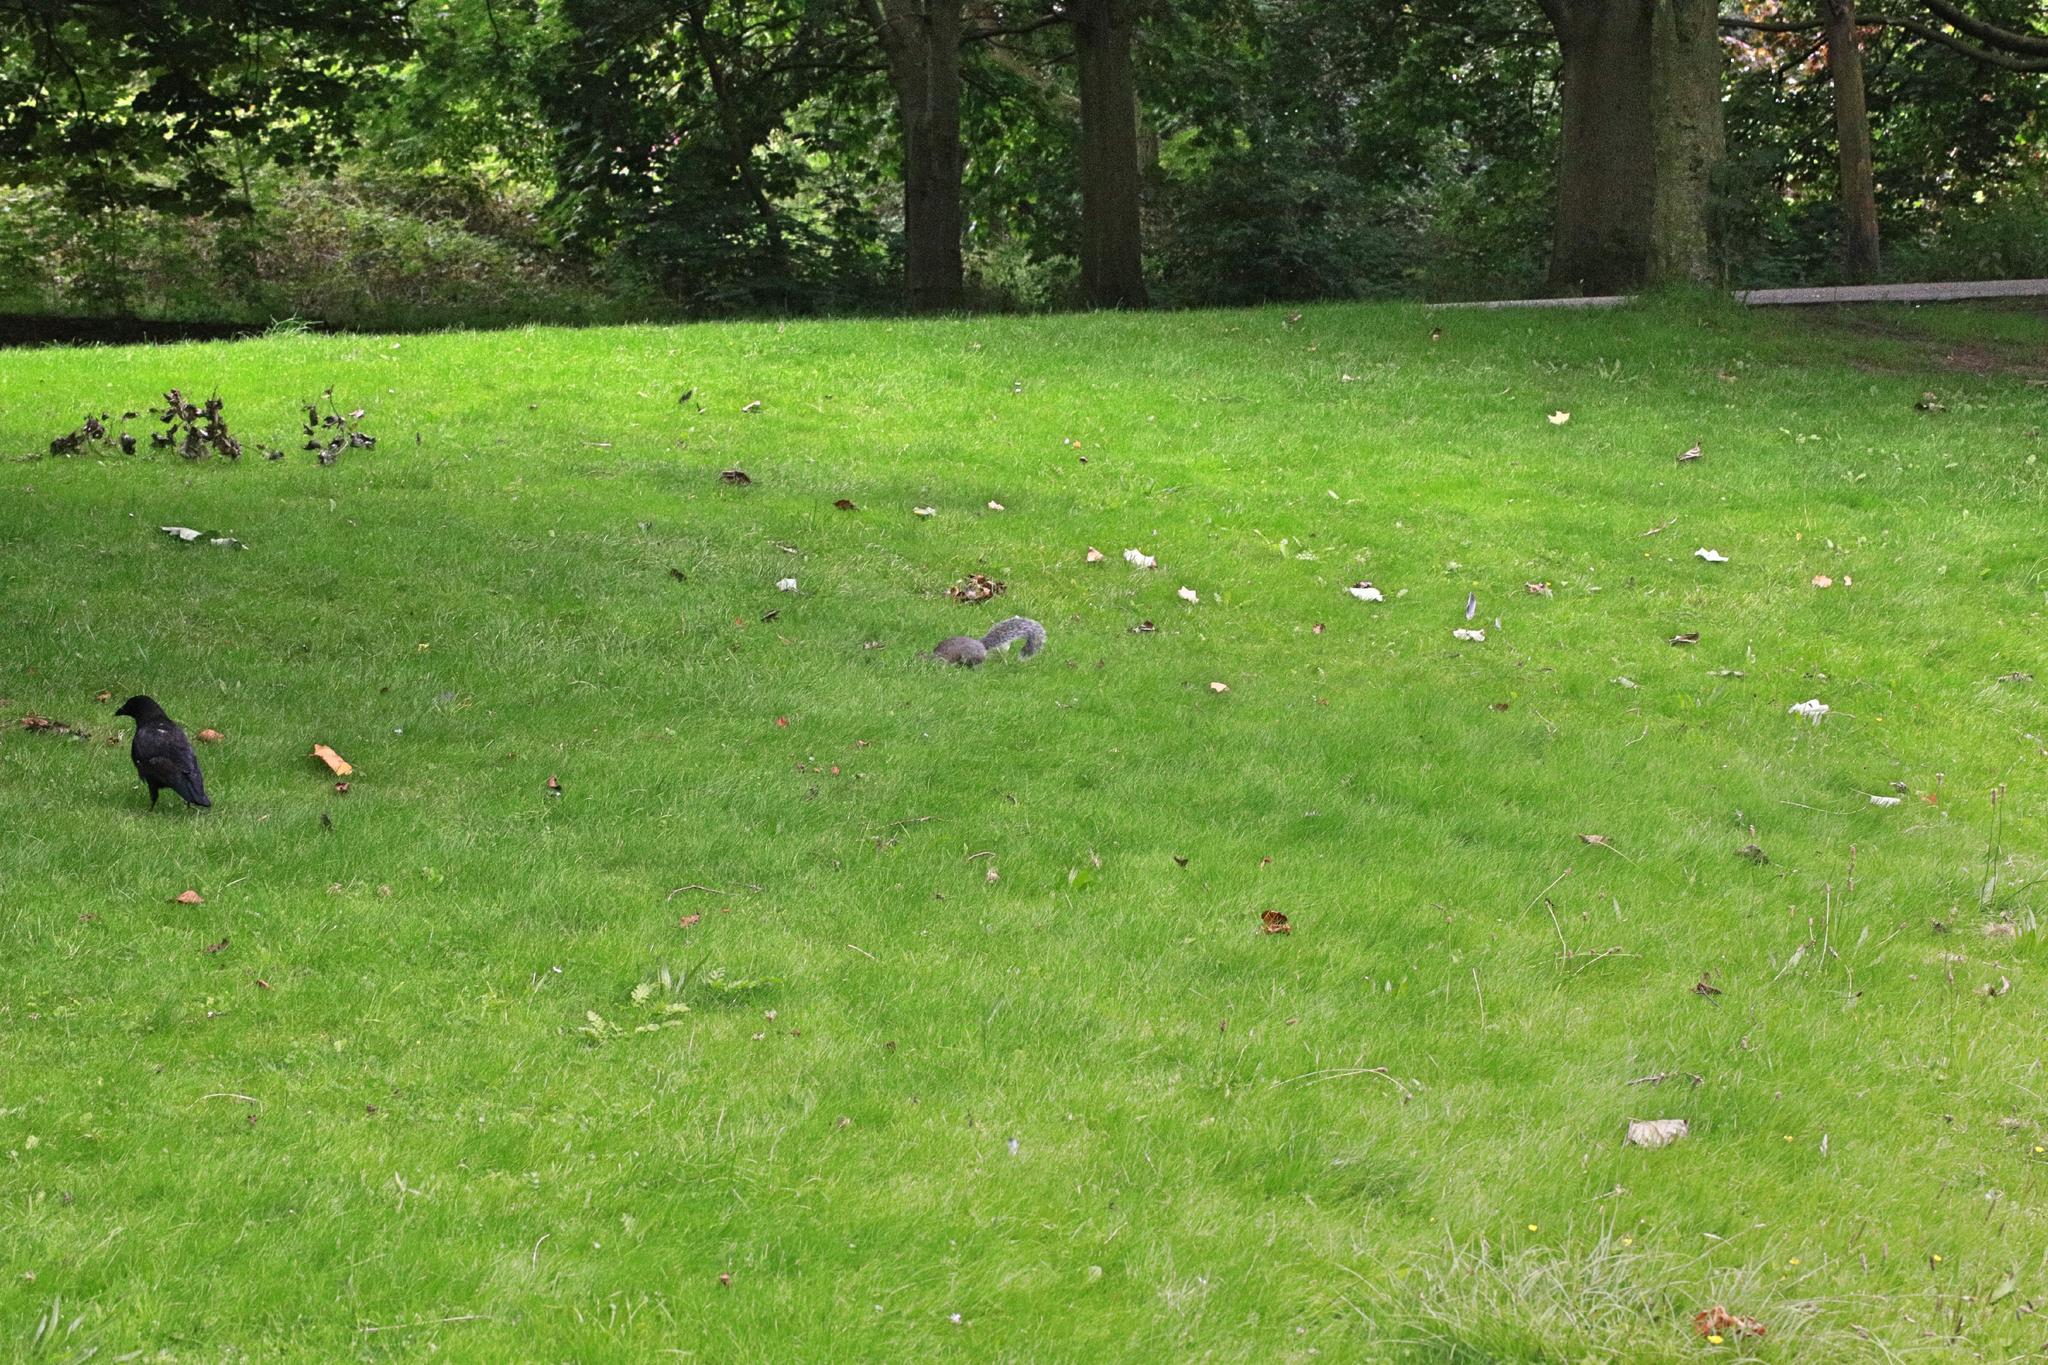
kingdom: Animalia
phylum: Chordata
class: Mammalia
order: Rodentia
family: Sciuridae
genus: Sciurus
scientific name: Sciurus carolinensis
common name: Eastern gray squirrel
